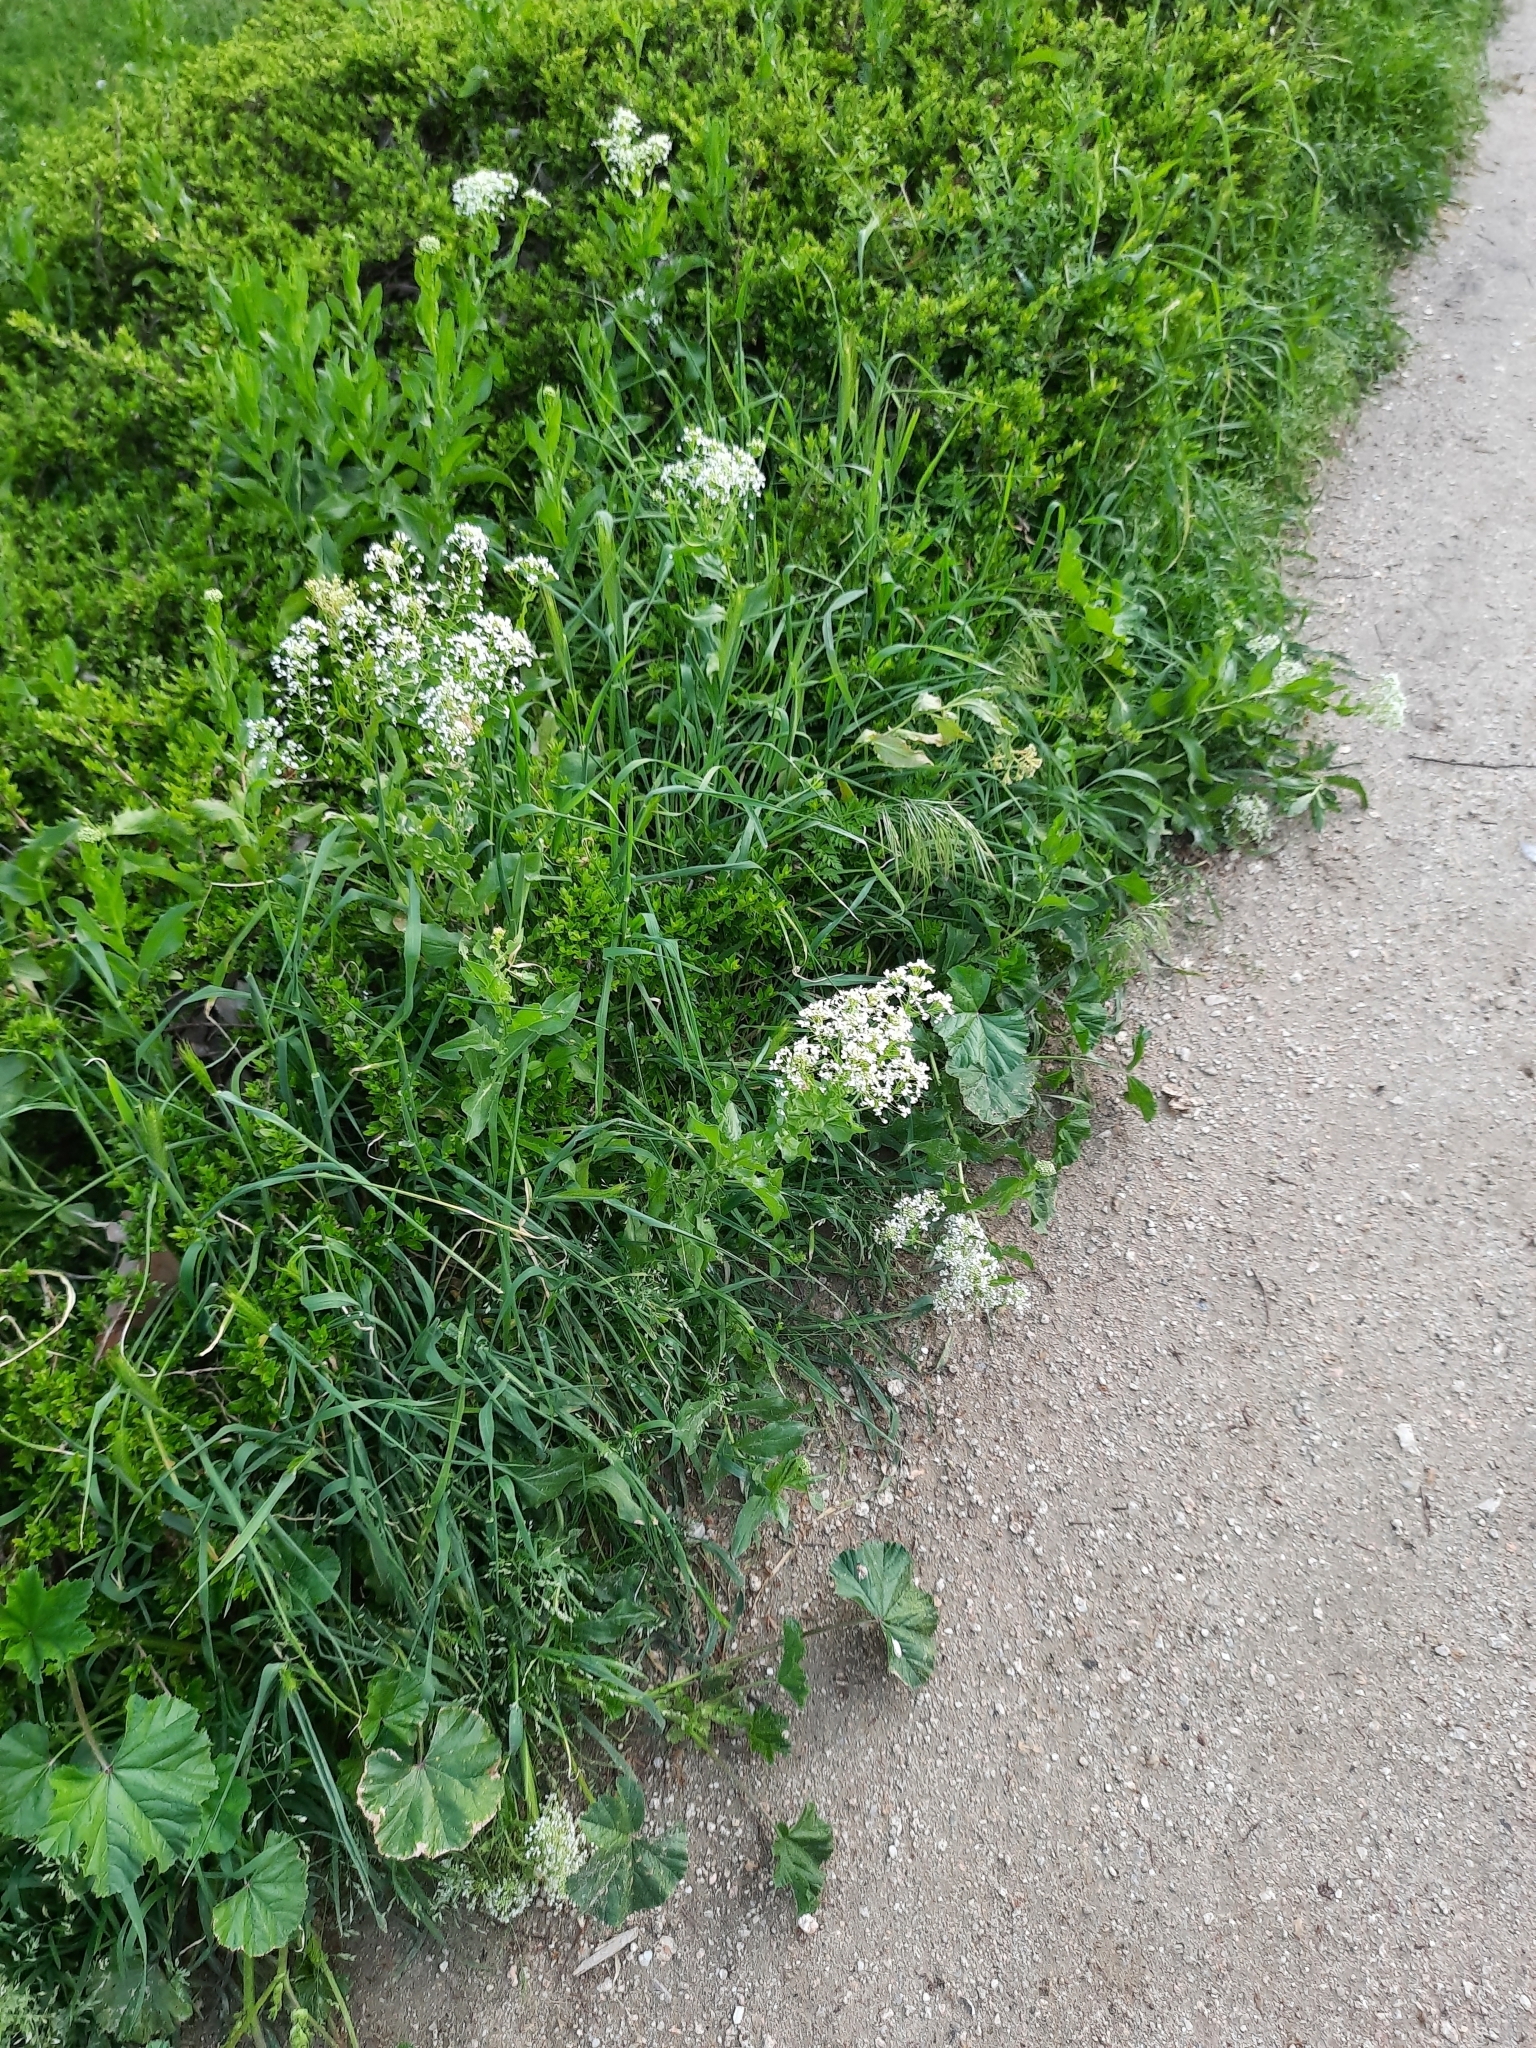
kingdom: Plantae
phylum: Tracheophyta
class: Magnoliopsida
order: Brassicales
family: Brassicaceae
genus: Lepidium
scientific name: Lepidium draba
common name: Hoary cress
